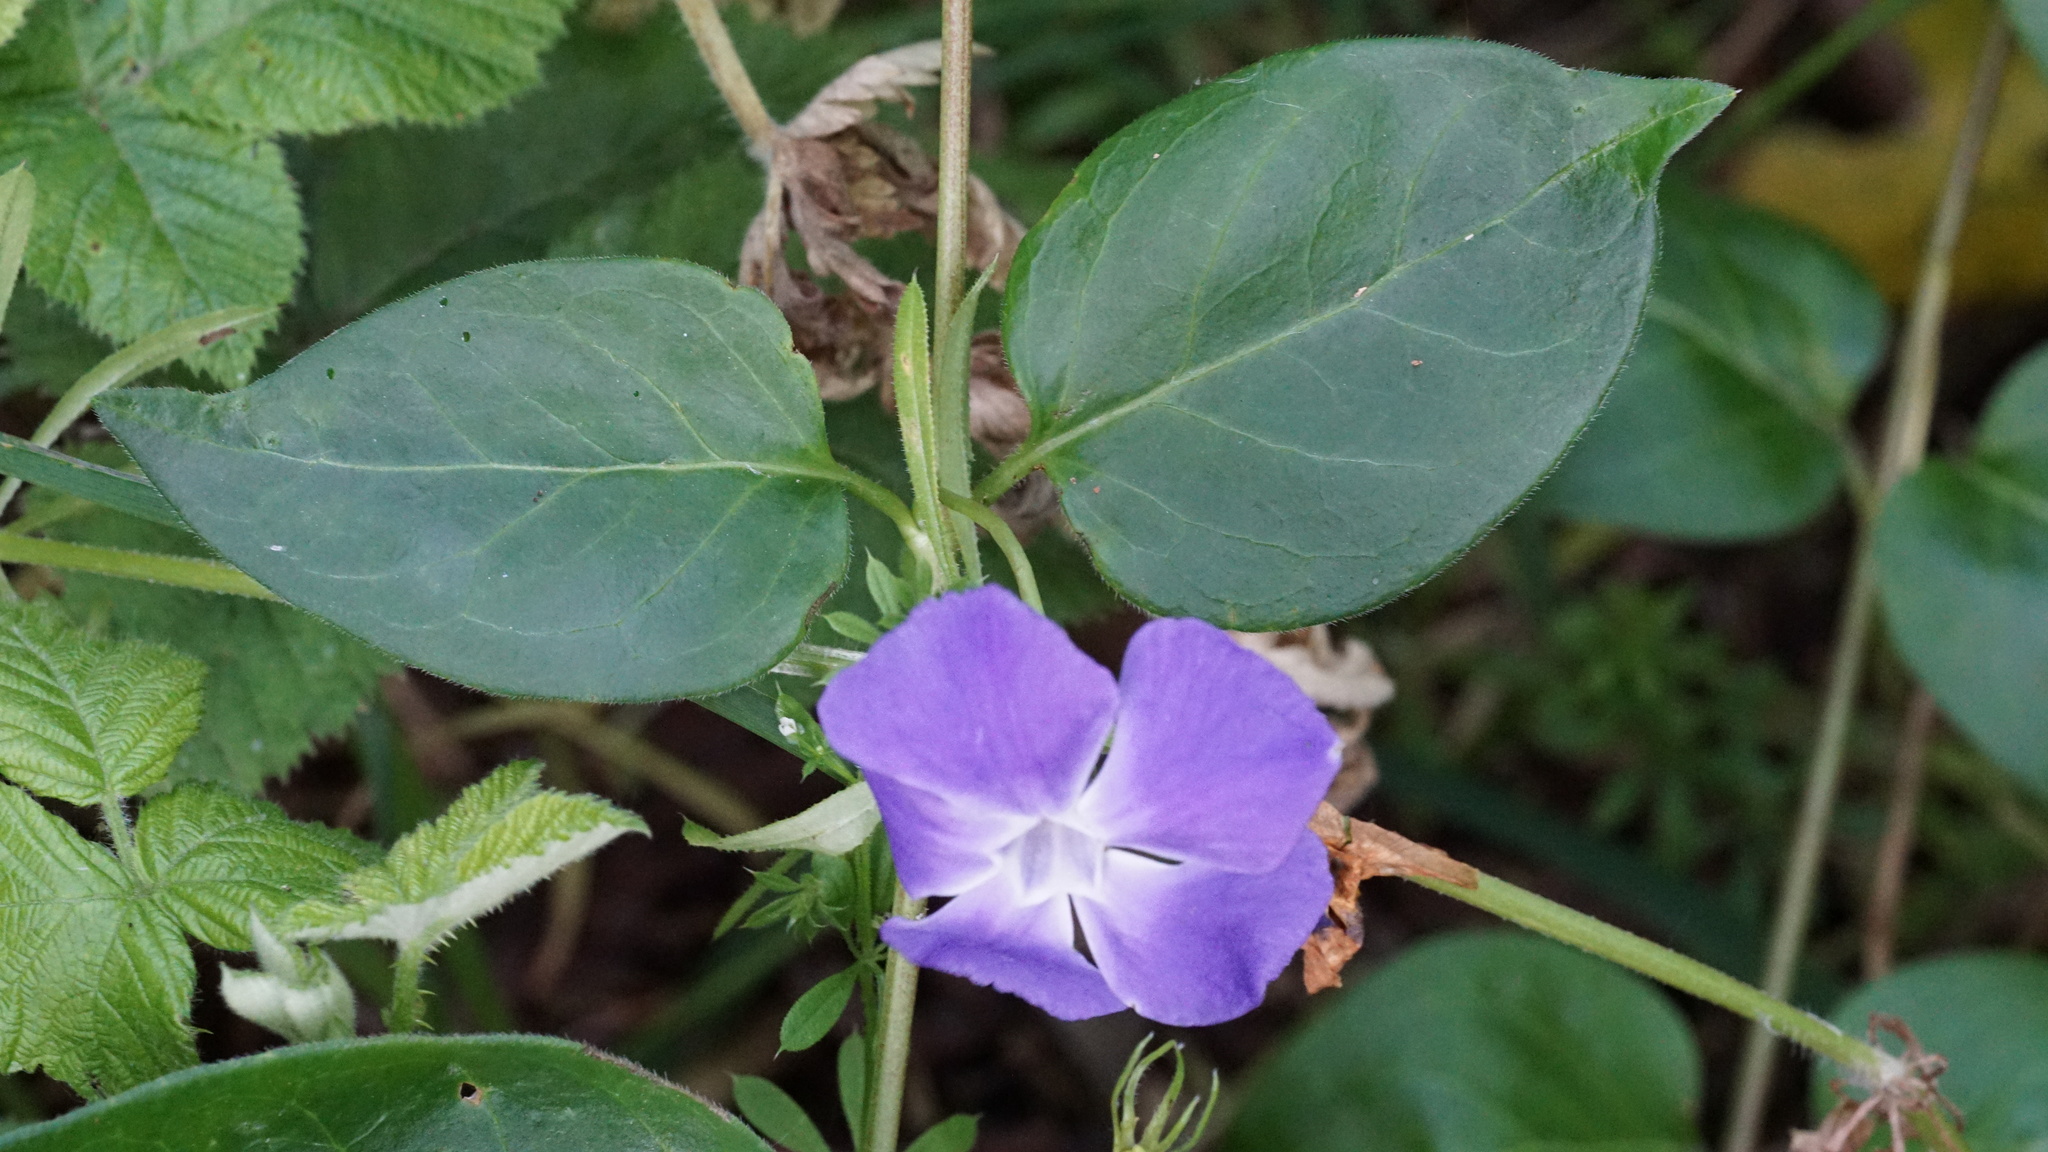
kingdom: Plantae
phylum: Tracheophyta
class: Magnoliopsida
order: Gentianales
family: Apocynaceae
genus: Vinca
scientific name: Vinca major
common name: Greater periwinkle
